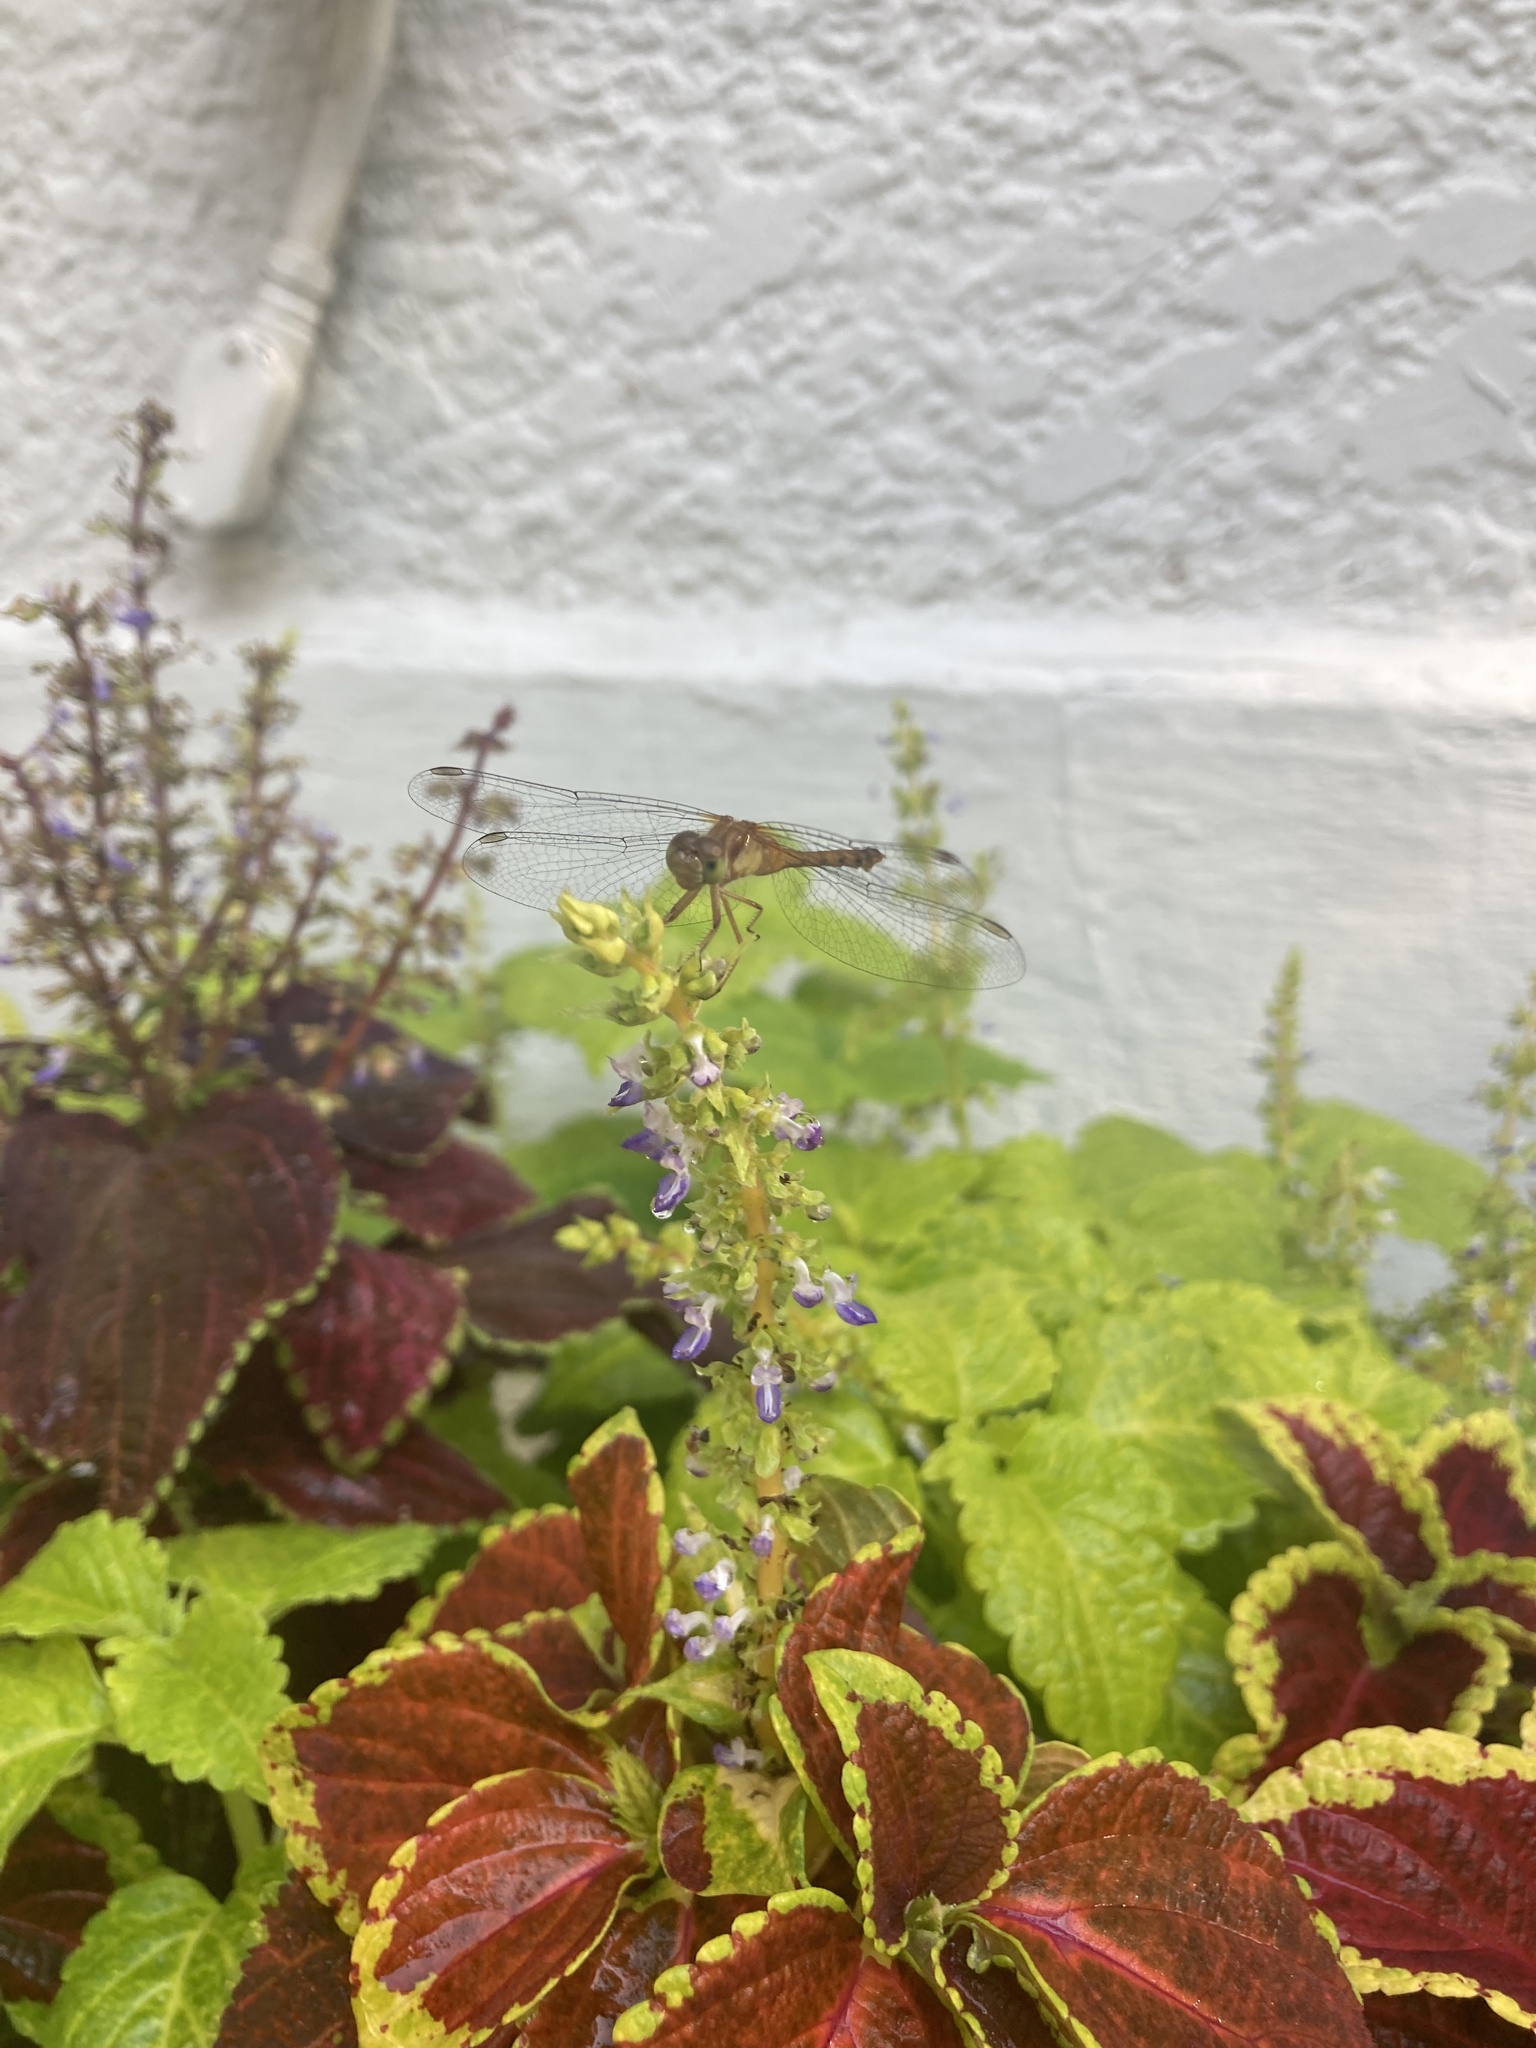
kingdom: Animalia
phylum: Arthropoda
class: Insecta
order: Odonata
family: Libellulidae
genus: Sympetrum
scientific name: Sympetrum vicinum
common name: Autumn meadowhawk
